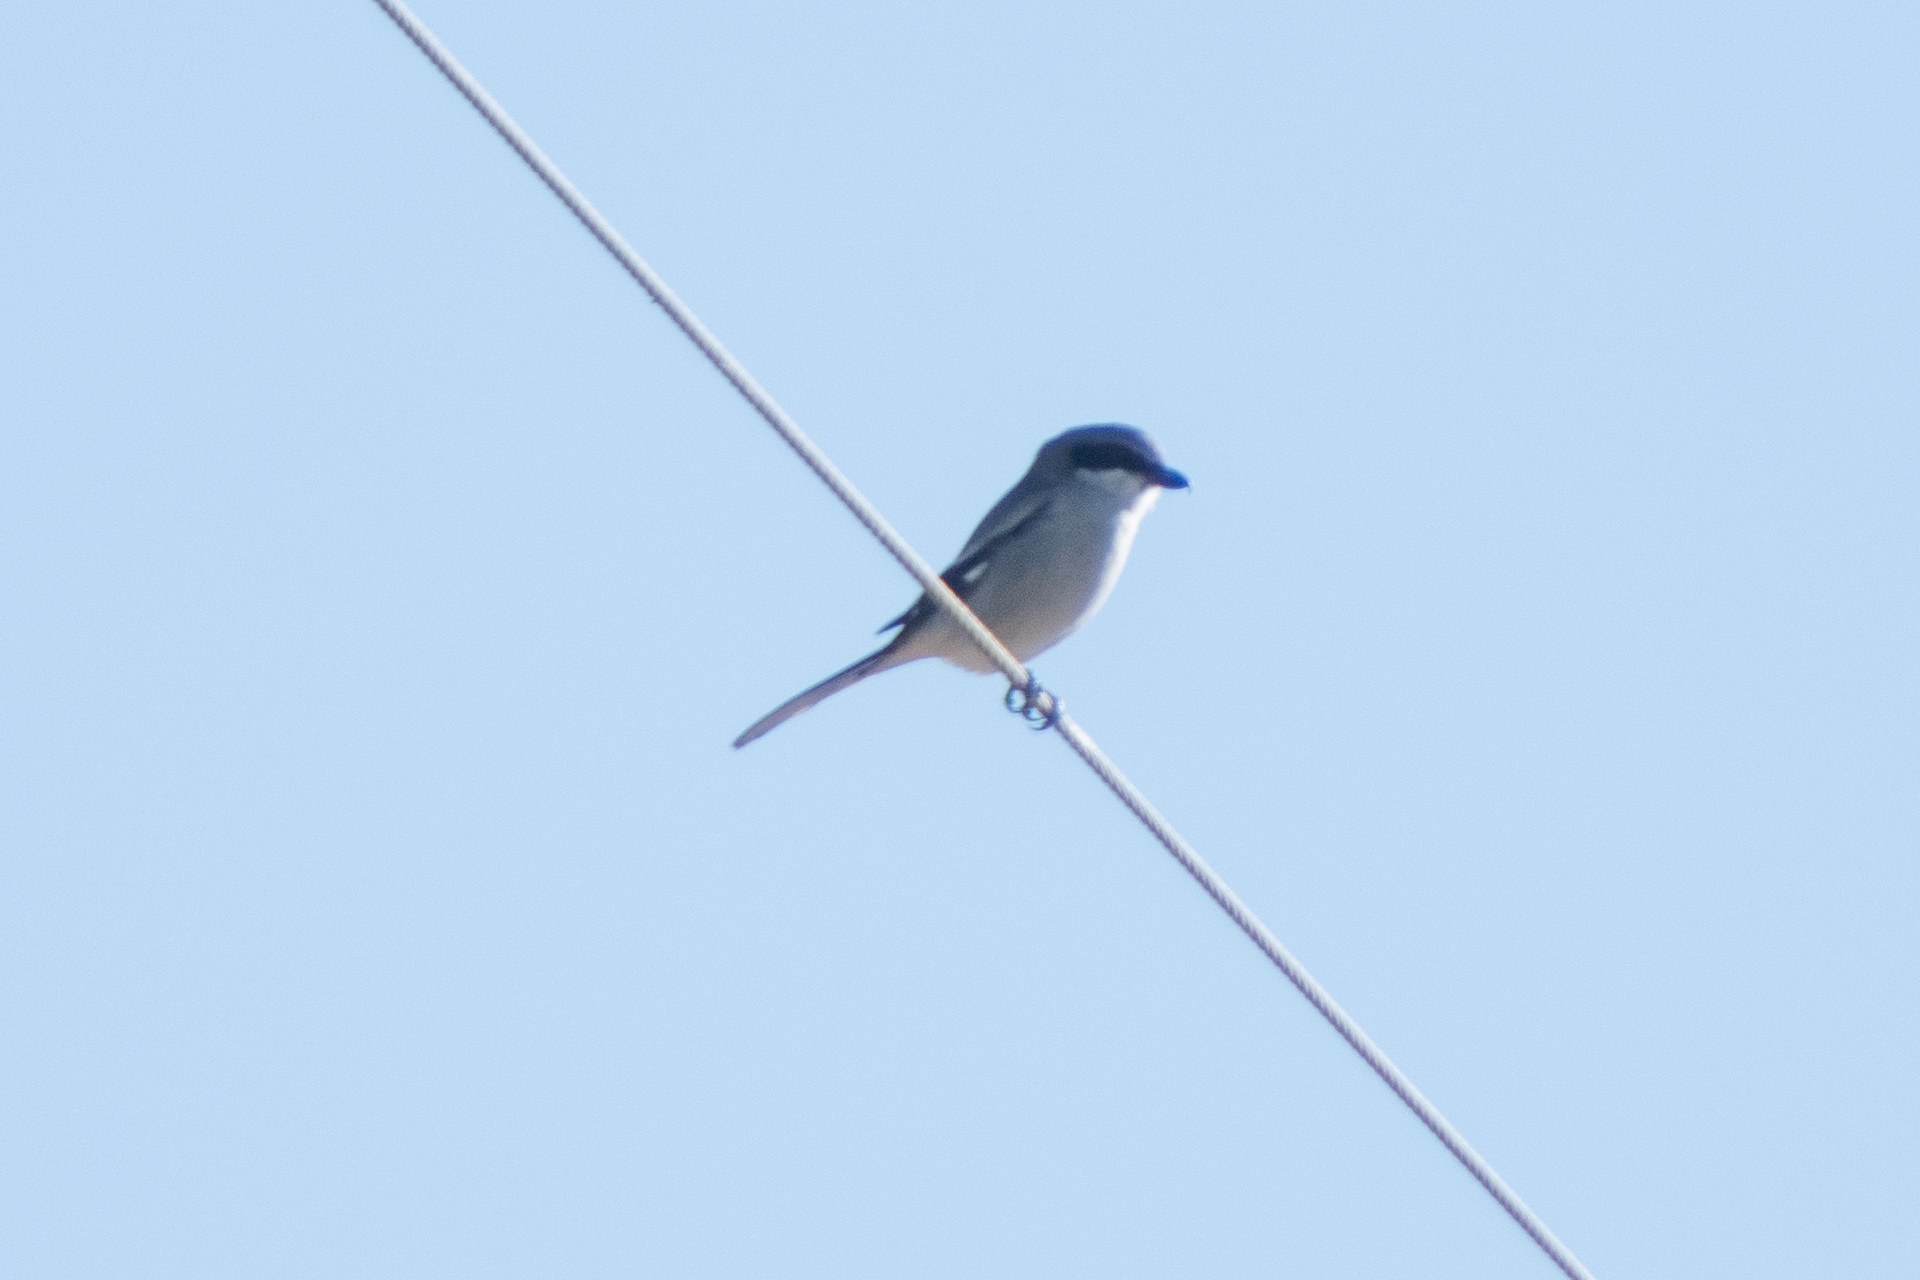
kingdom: Animalia
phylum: Chordata
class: Aves
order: Passeriformes
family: Laniidae
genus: Lanius
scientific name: Lanius ludovicianus
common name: Loggerhead shrike
